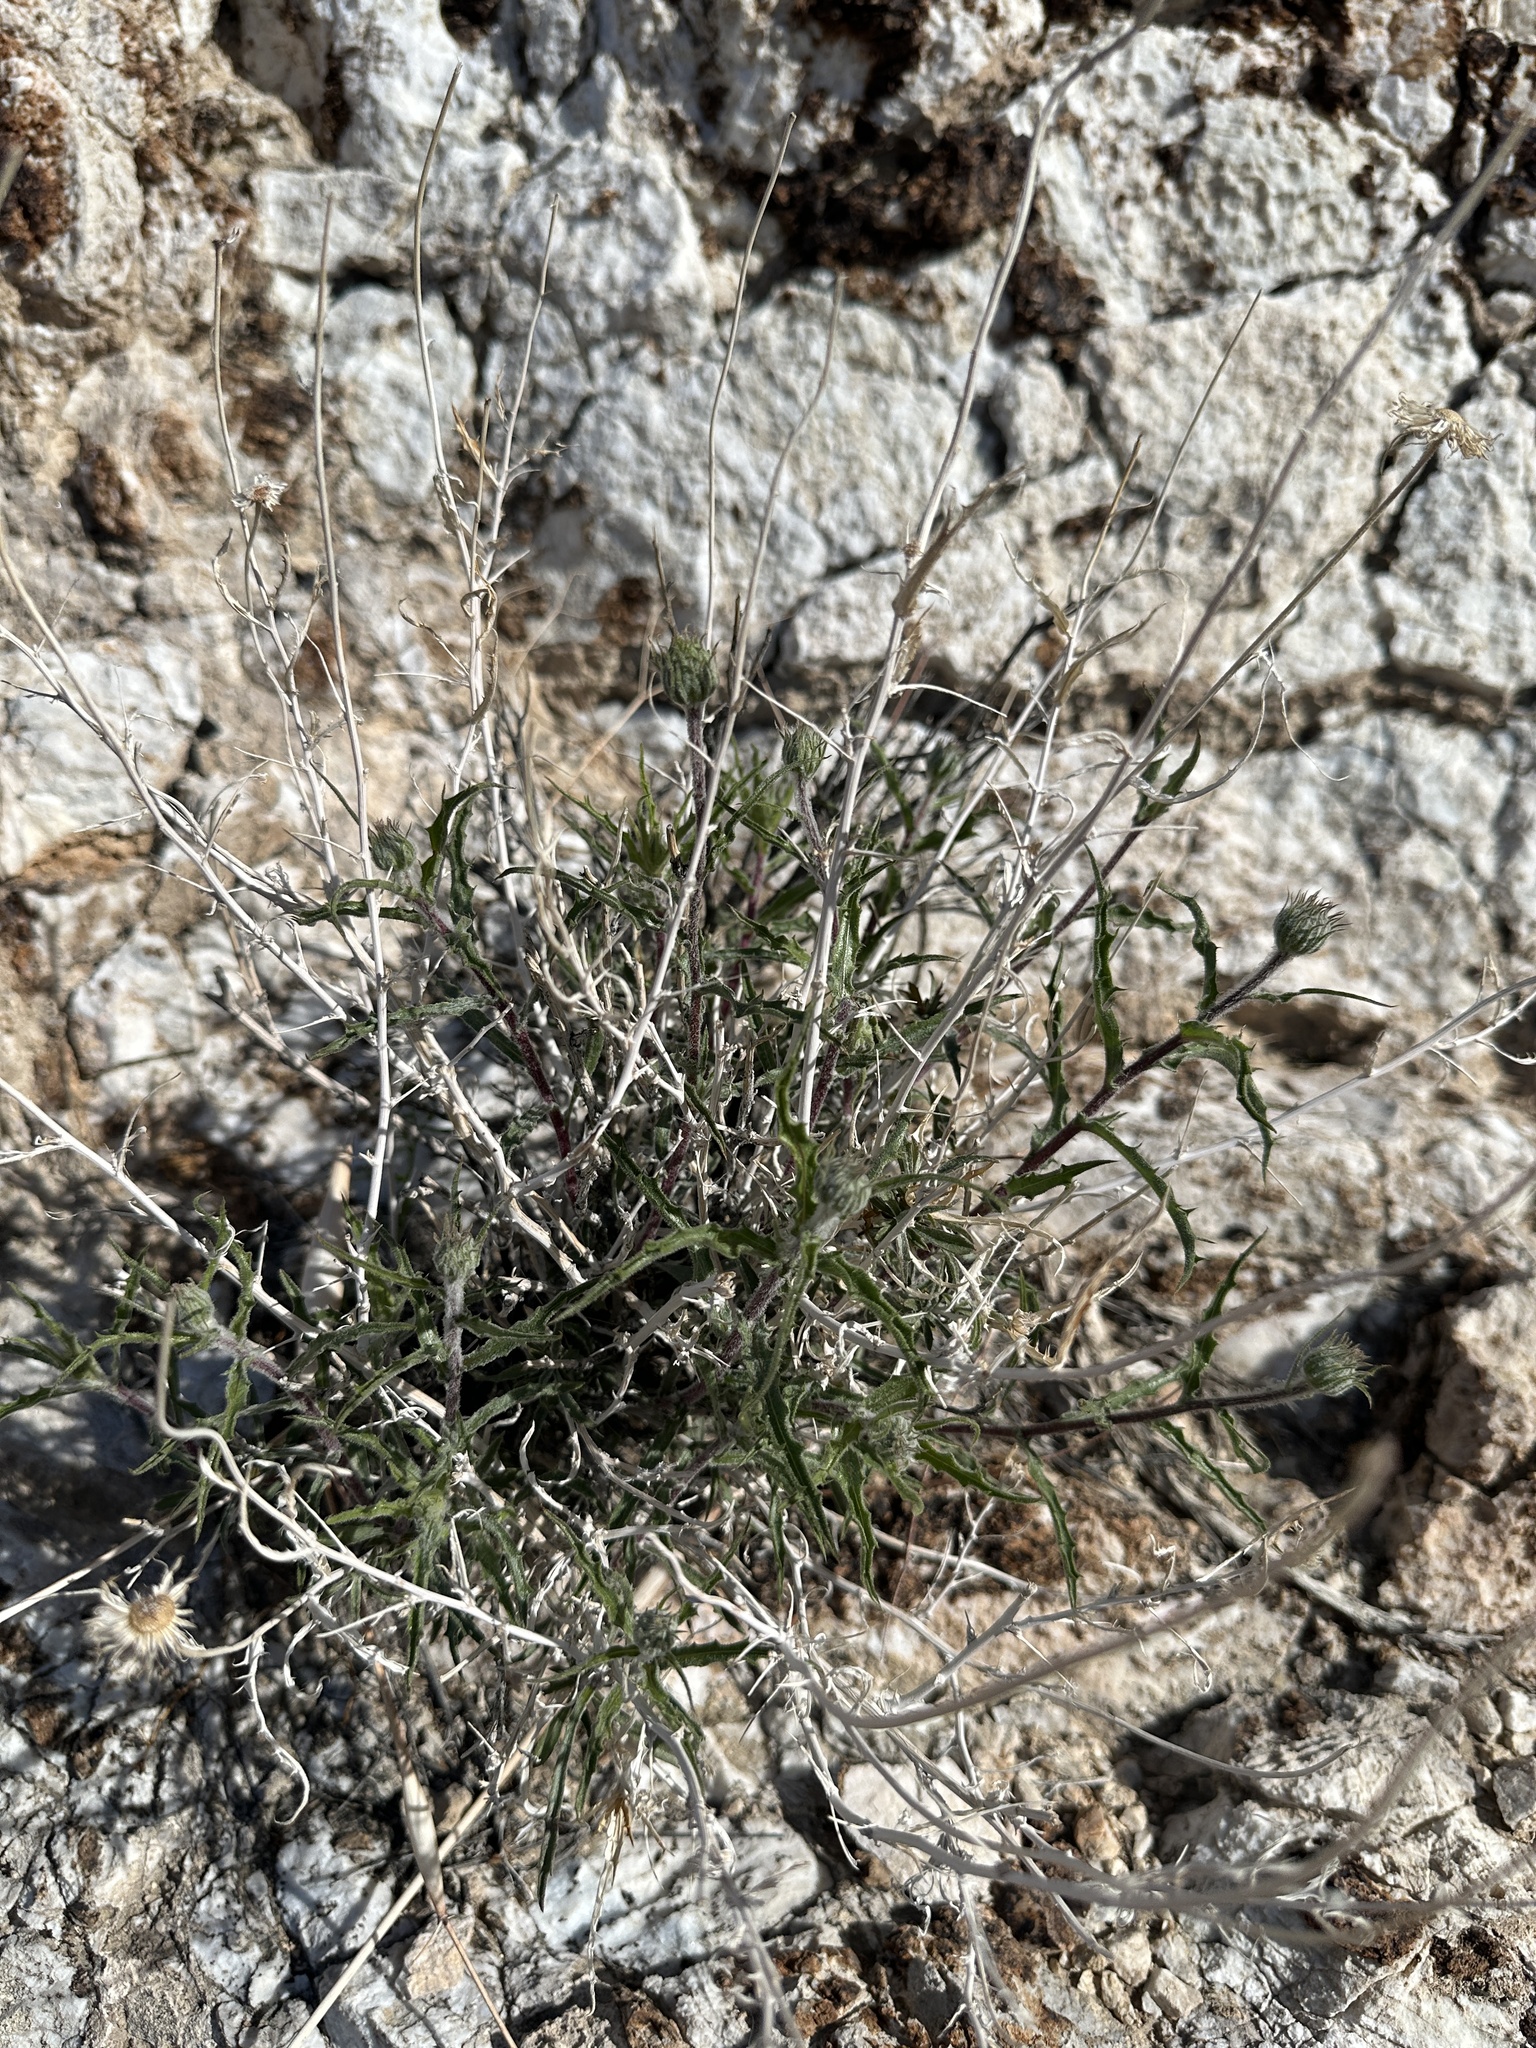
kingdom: Plantae
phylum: Tracheophyta
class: Magnoliopsida
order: Asterales
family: Asteraceae
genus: Xylorhiza
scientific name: Xylorhiza tortifolia
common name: Hurt-leaf woody-aster
